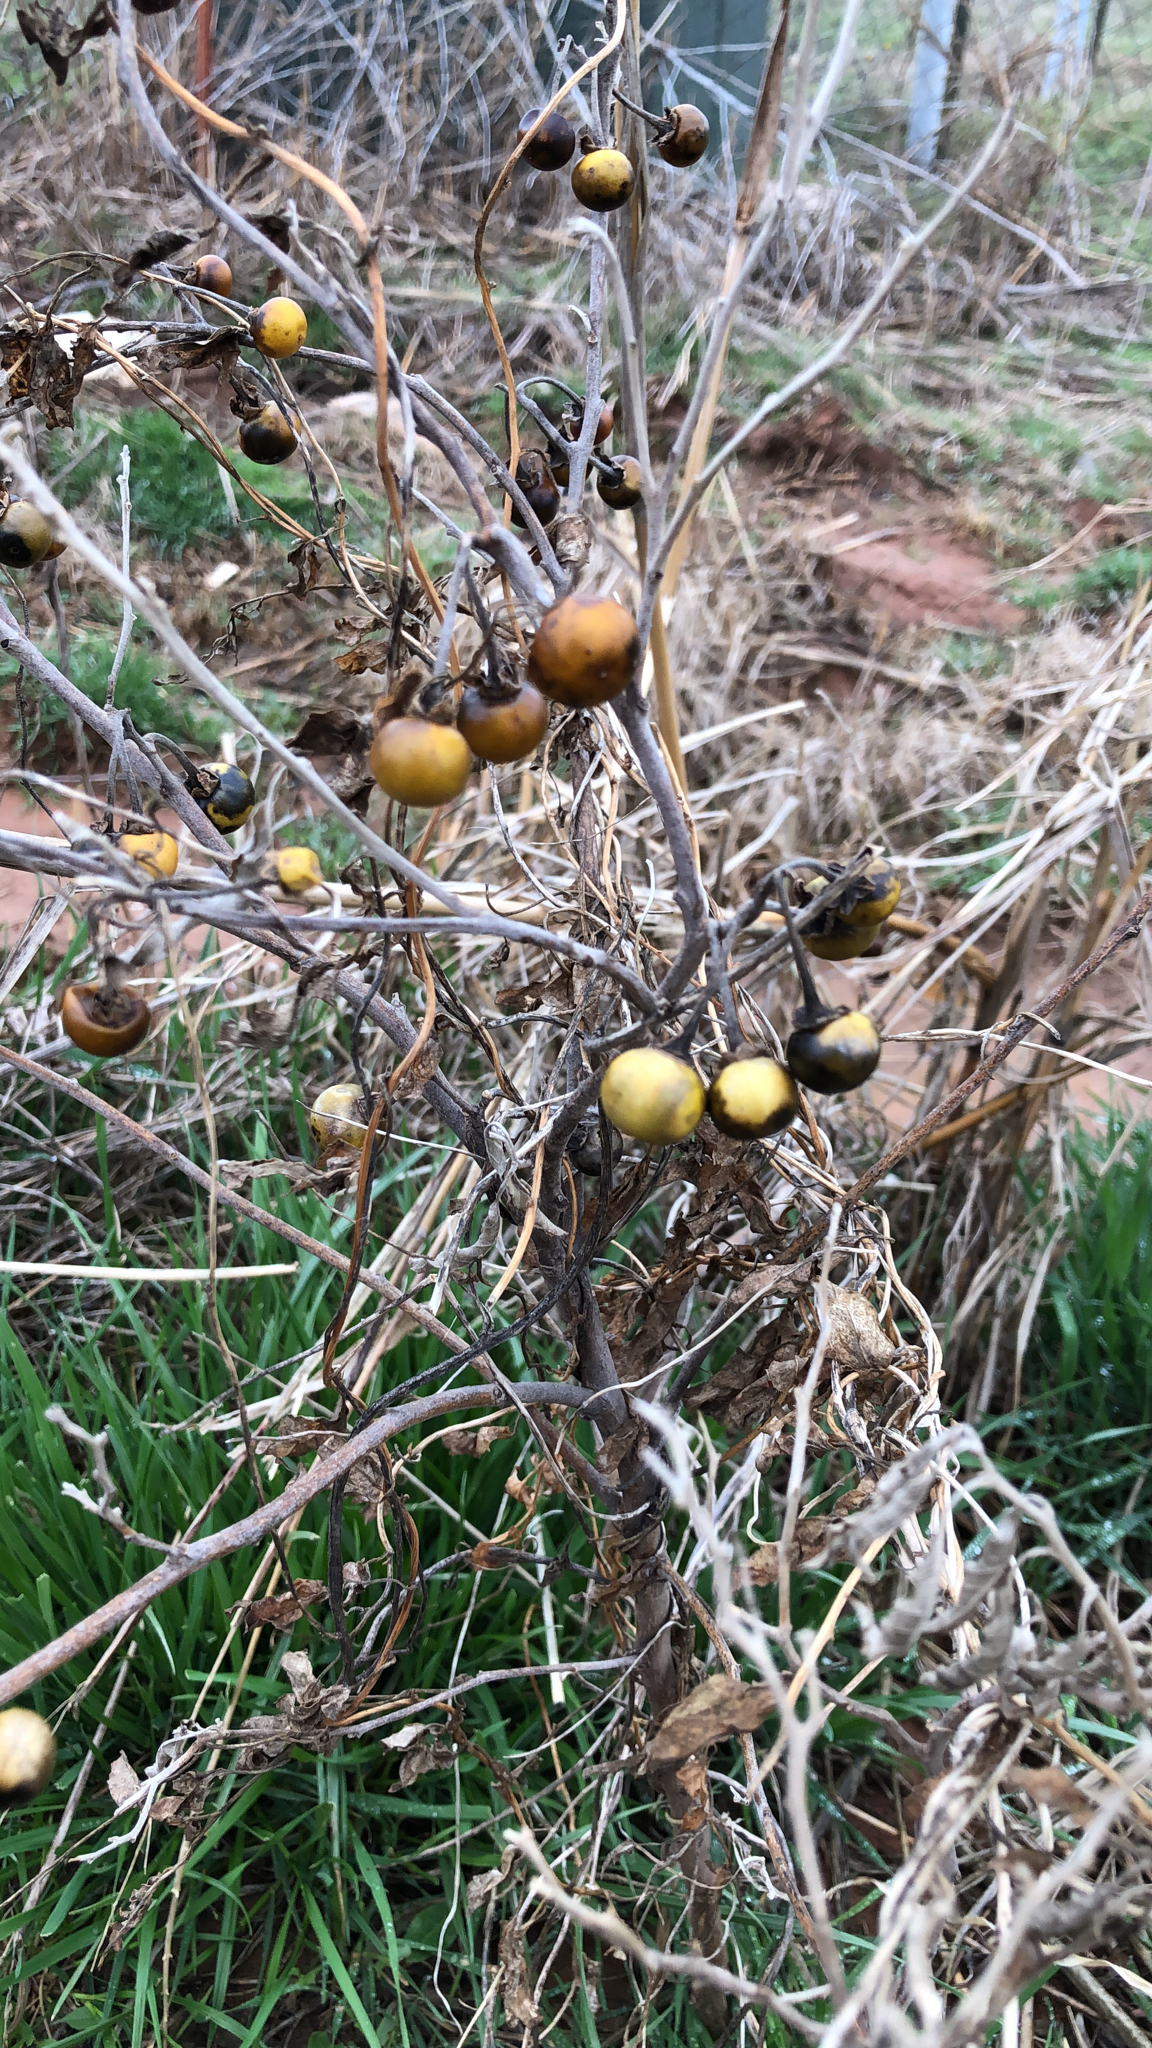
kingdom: Plantae
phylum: Tracheophyta
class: Magnoliopsida
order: Solanales
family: Solanaceae
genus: Solanum
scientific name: Solanum carolinense
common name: Horse-nettle
